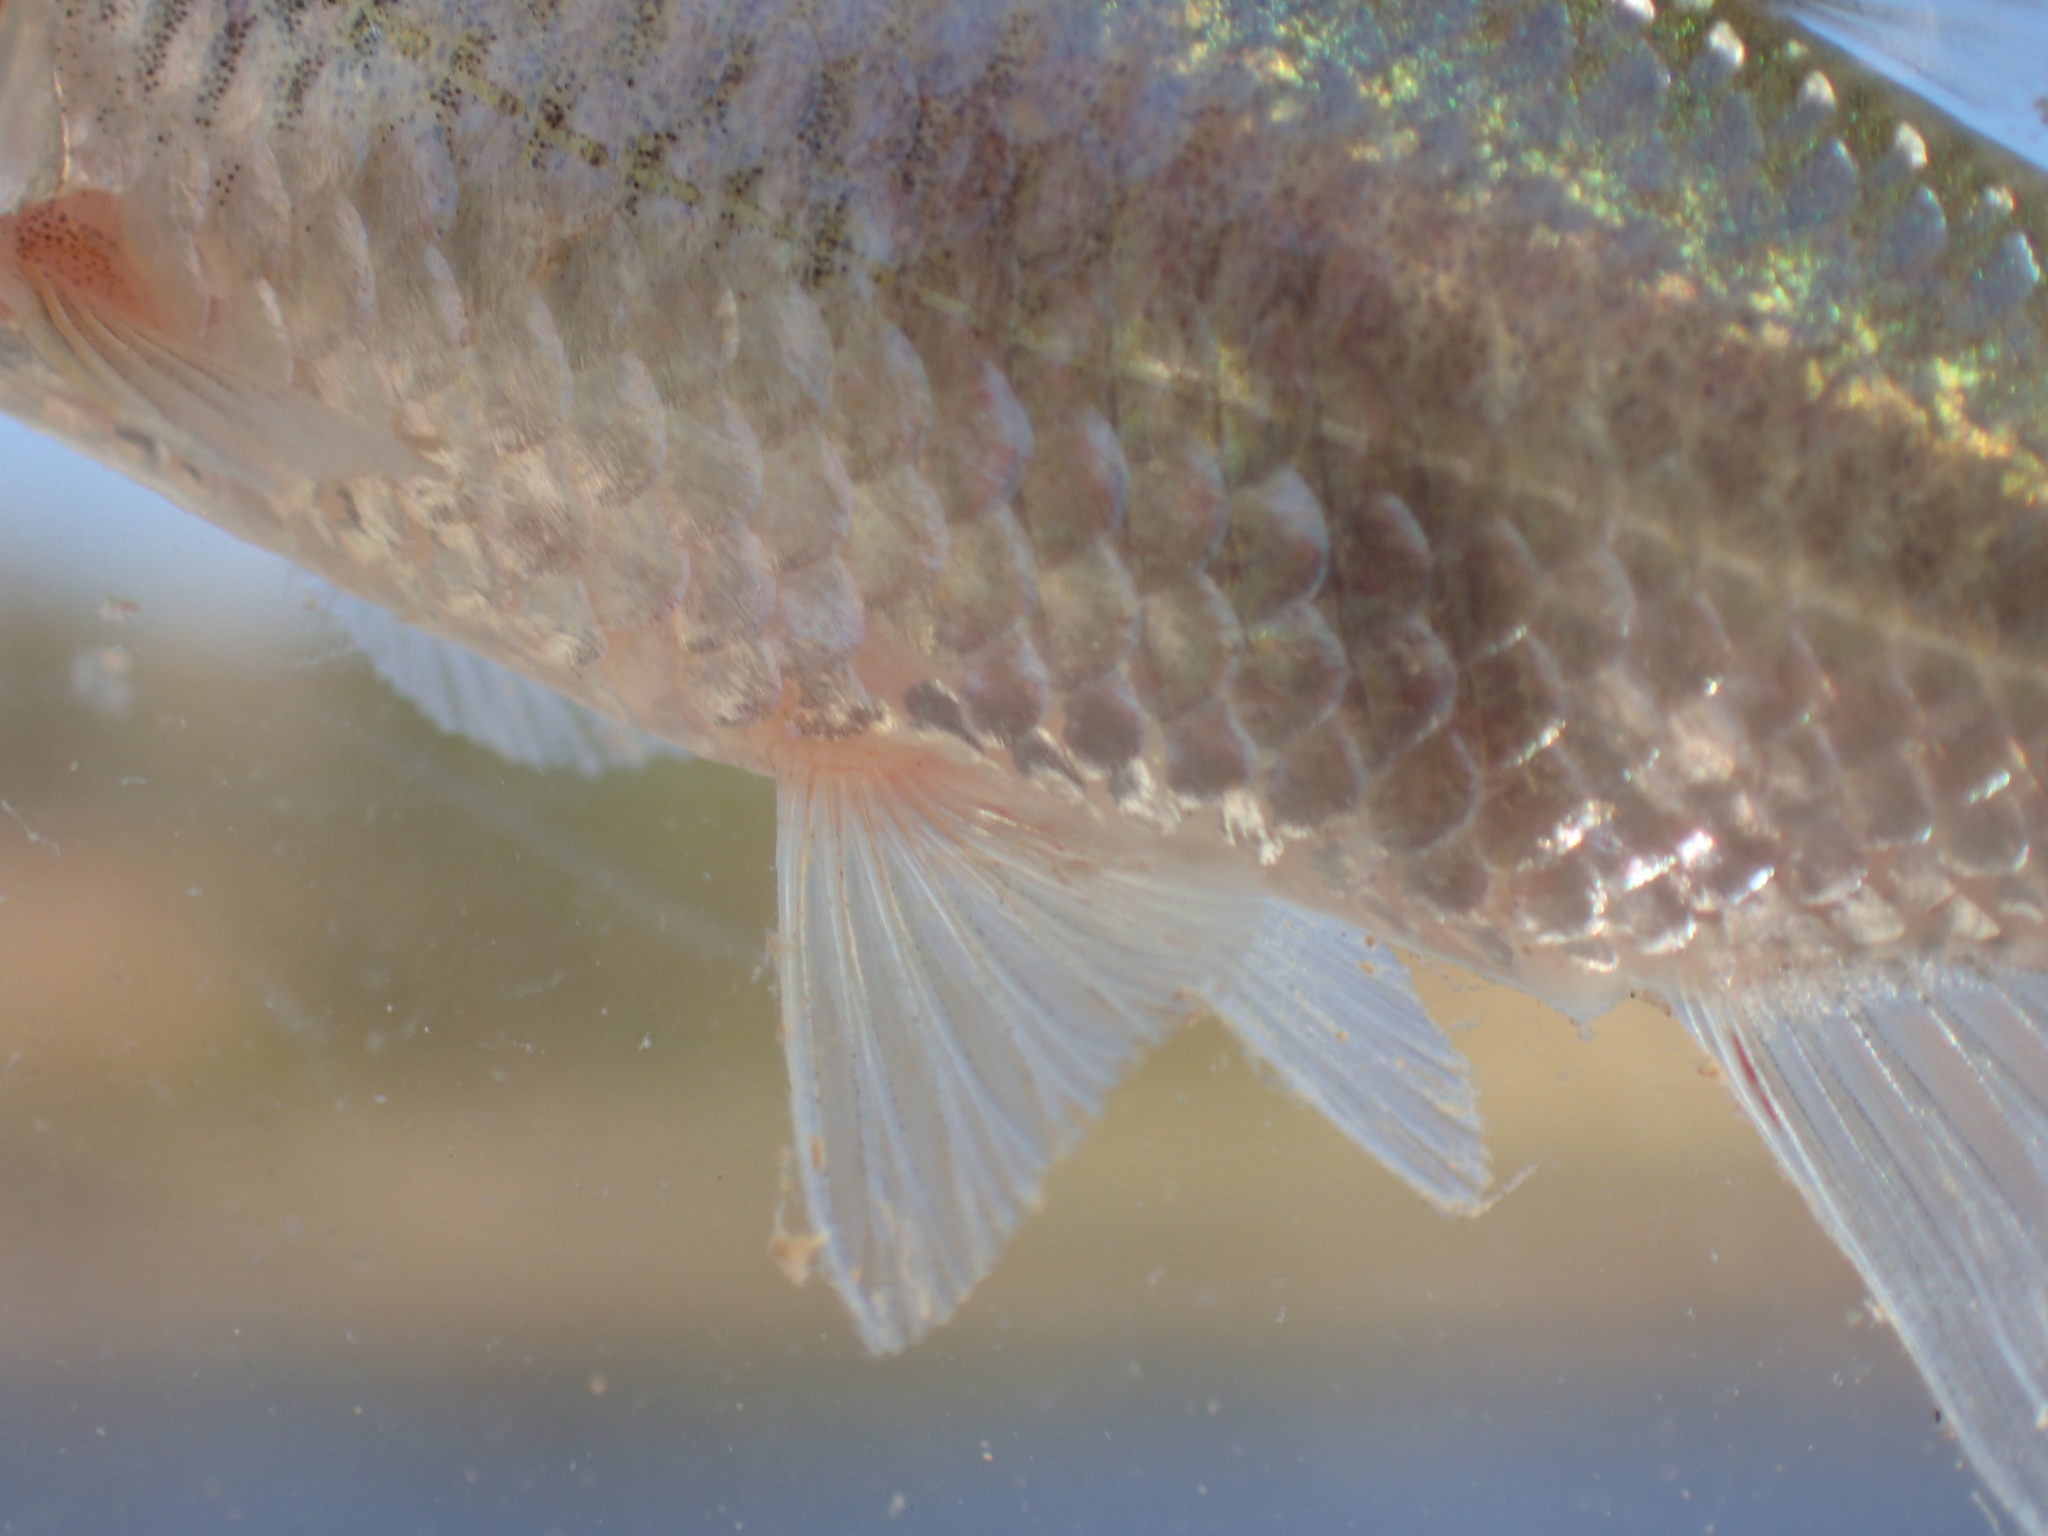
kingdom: Animalia
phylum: Chordata
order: Cypriniformes
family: Cyprinidae
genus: Pseudobarbus
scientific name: Pseudobarbus hospes
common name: Namaquab barb
